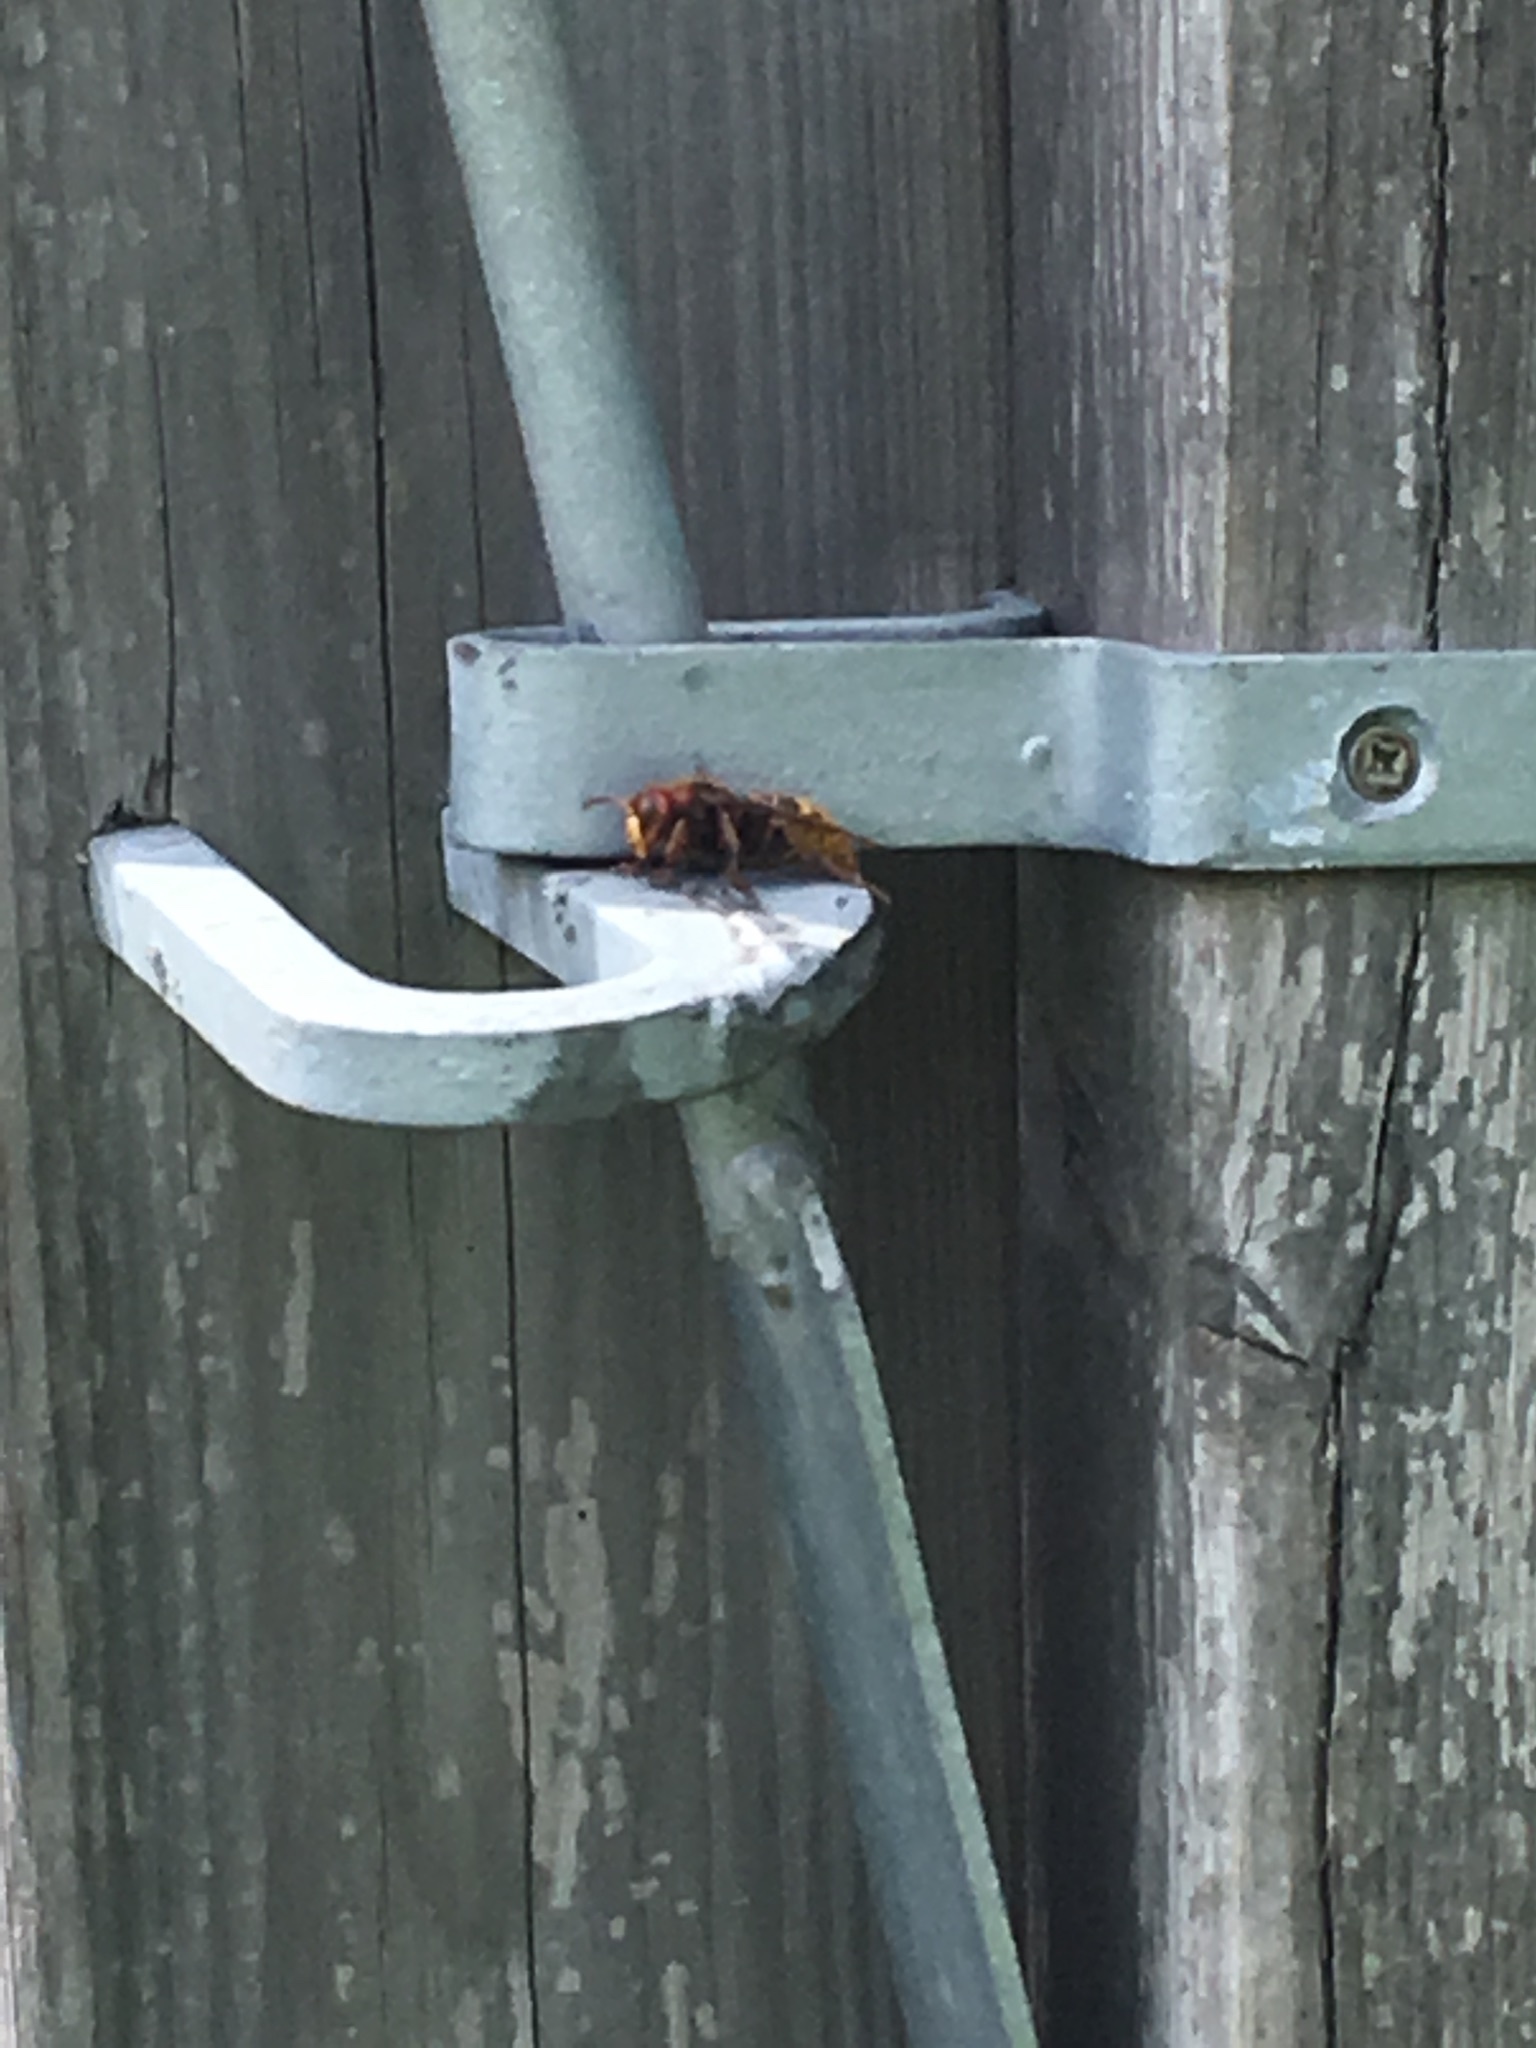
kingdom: Animalia
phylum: Arthropoda
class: Insecta
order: Hymenoptera
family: Vespidae
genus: Vespa
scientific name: Vespa crabro
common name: Hornet
